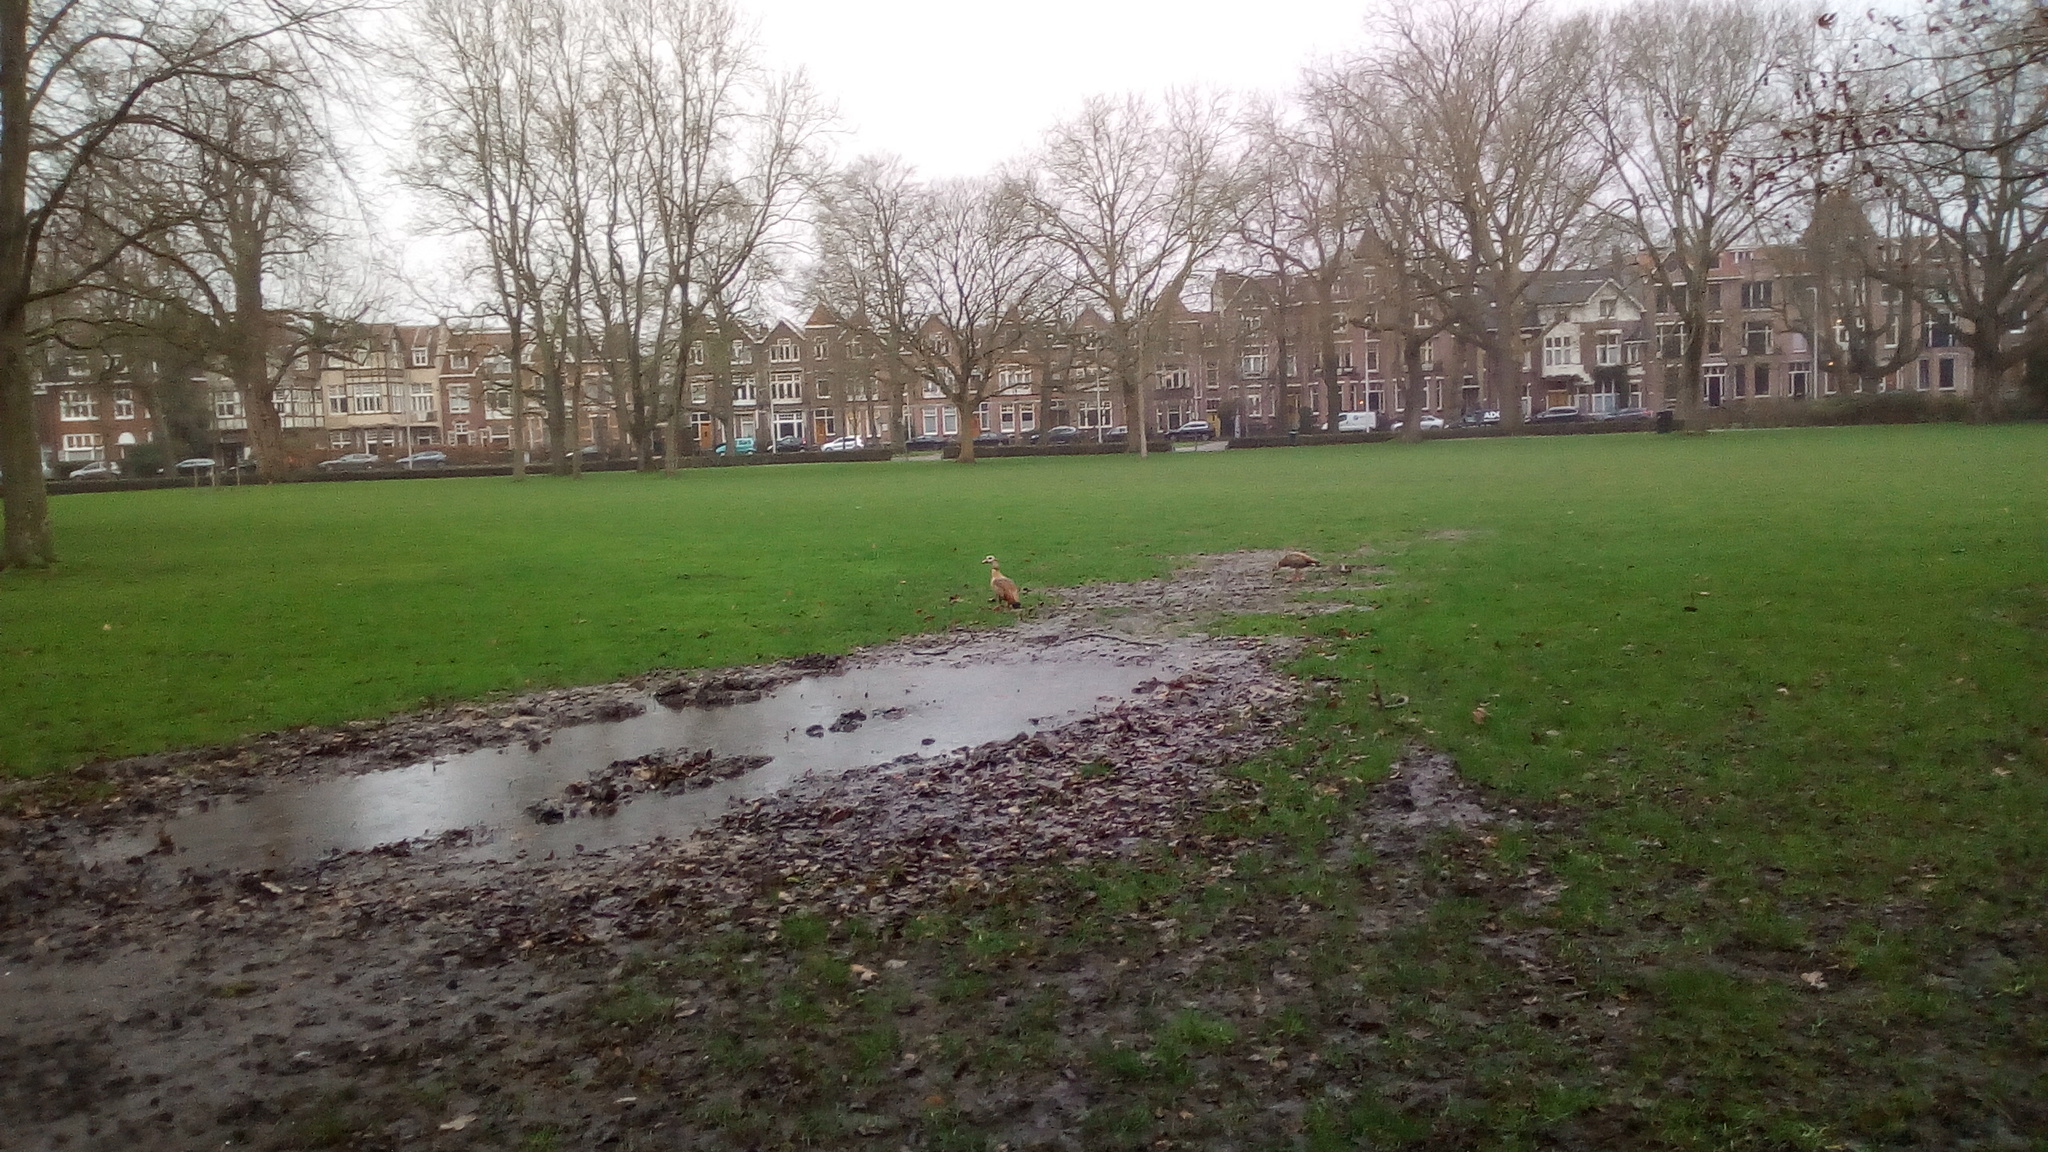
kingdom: Animalia
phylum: Chordata
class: Aves
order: Anseriformes
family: Anatidae
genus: Alopochen
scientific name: Alopochen aegyptiaca
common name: Egyptian goose
